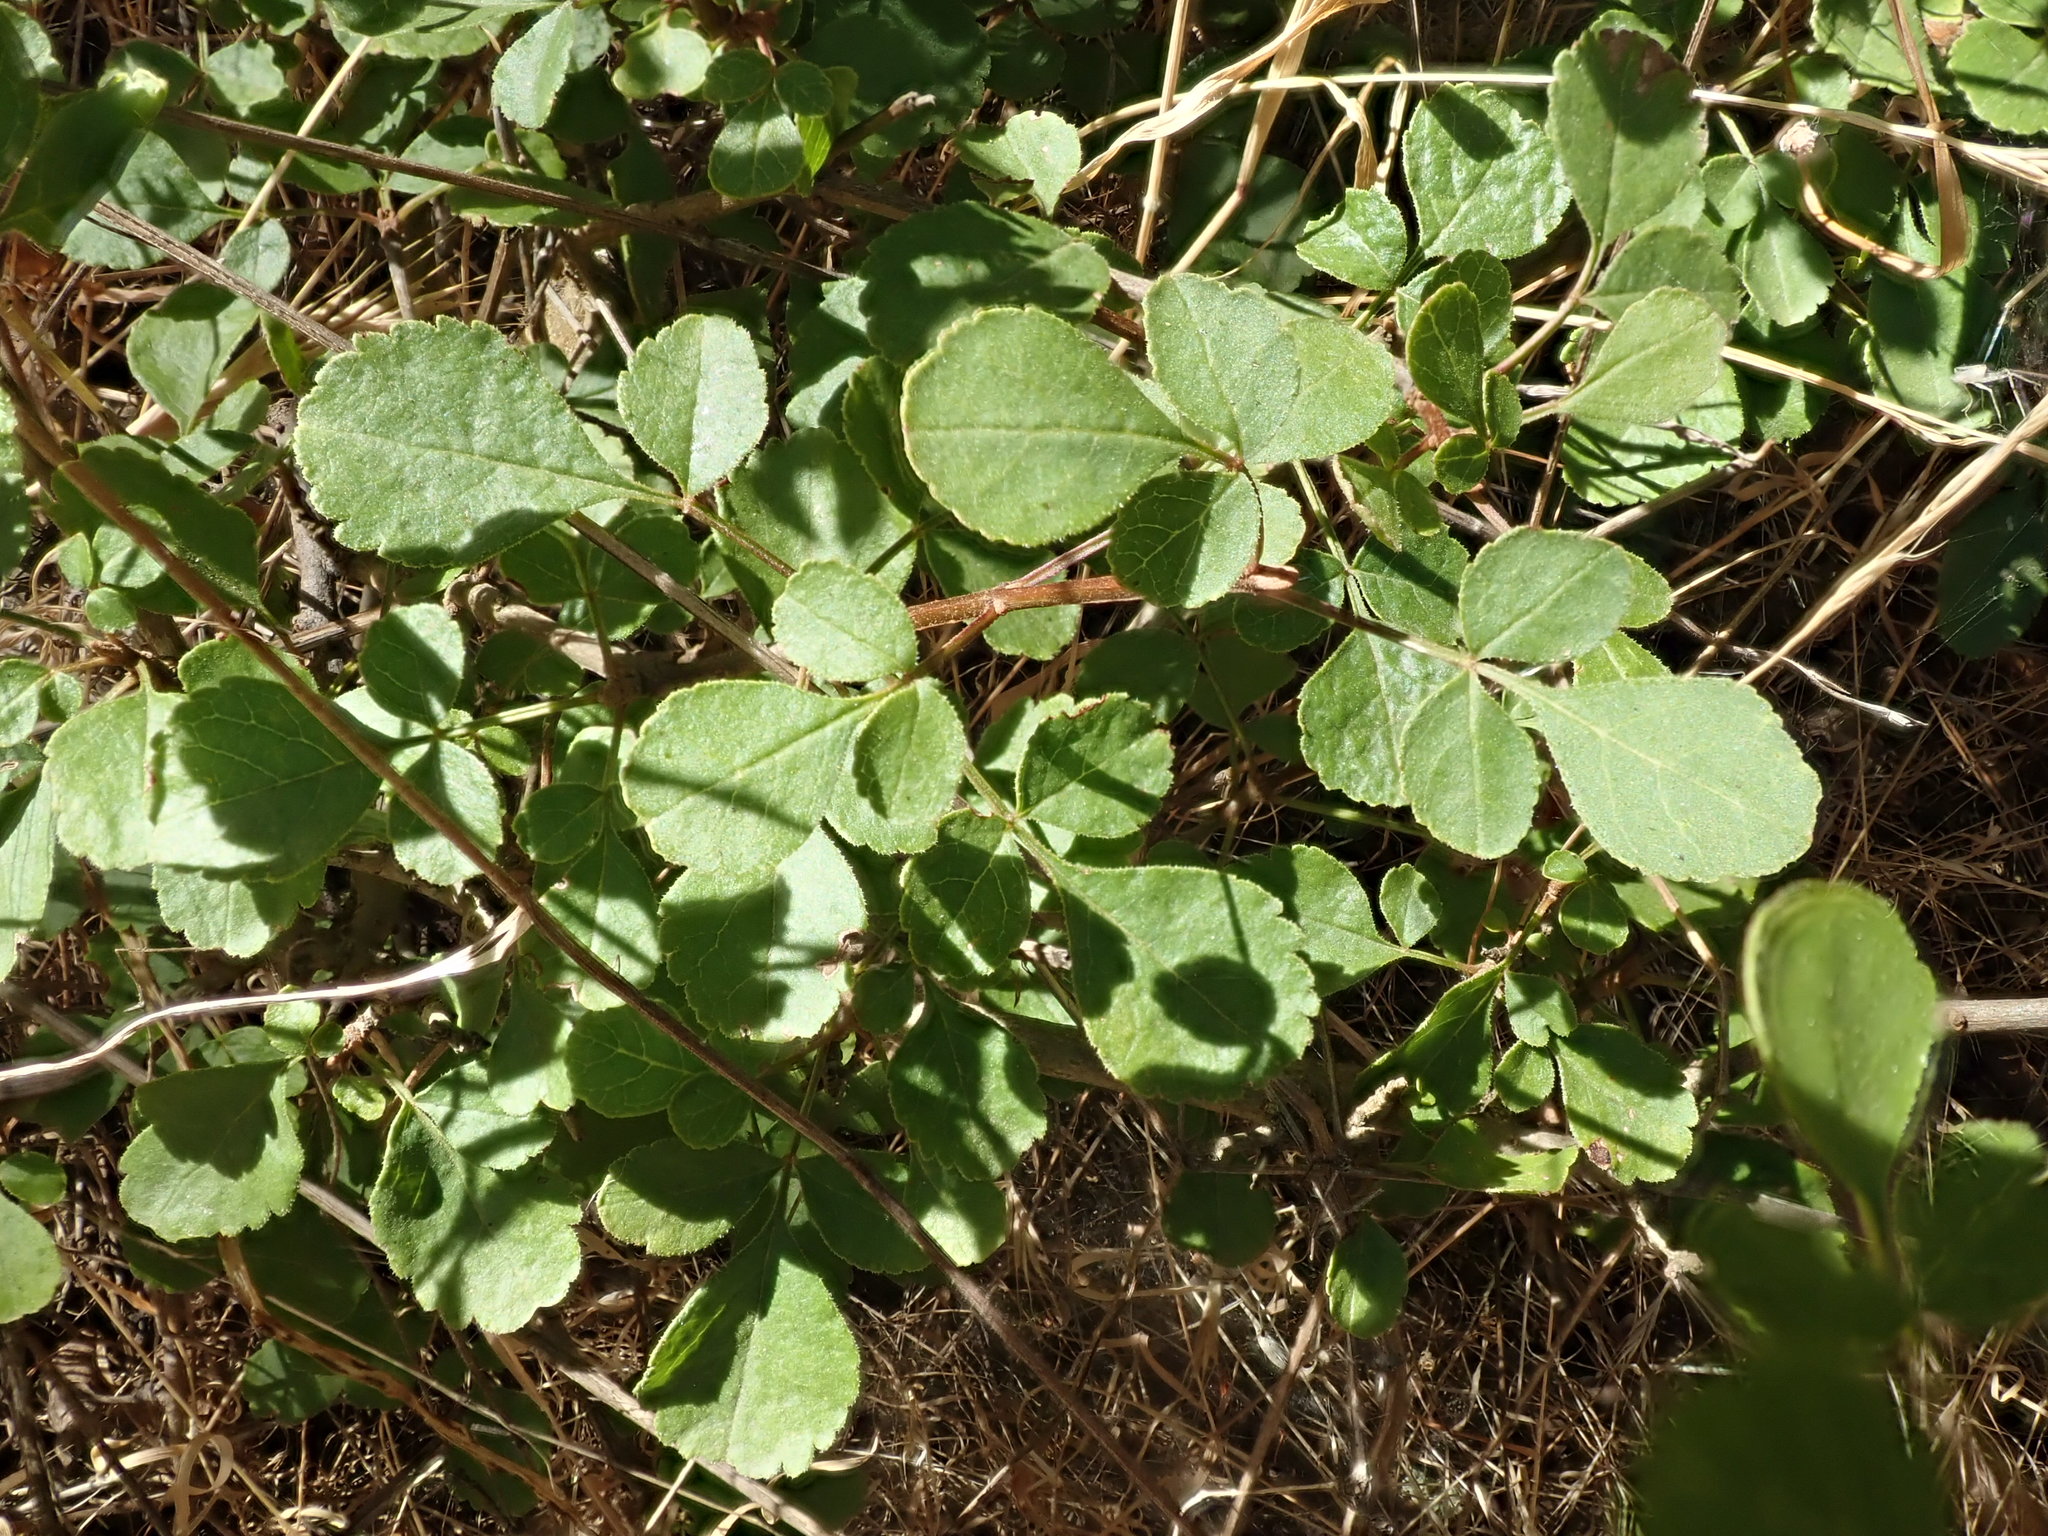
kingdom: Plantae
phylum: Tracheophyta
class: Magnoliopsida
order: Lamiales
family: Oleaceae
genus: Fraxinus
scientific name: Fraxinus dipetala
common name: California ash
